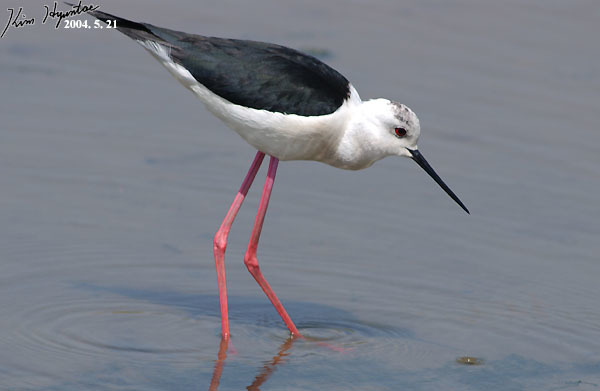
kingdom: Animalia
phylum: Chordata
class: Aves
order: Charadriiformes
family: Recurvirostridae
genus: Himantopus
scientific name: Himantopus himantopus
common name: Black-winged stilt
